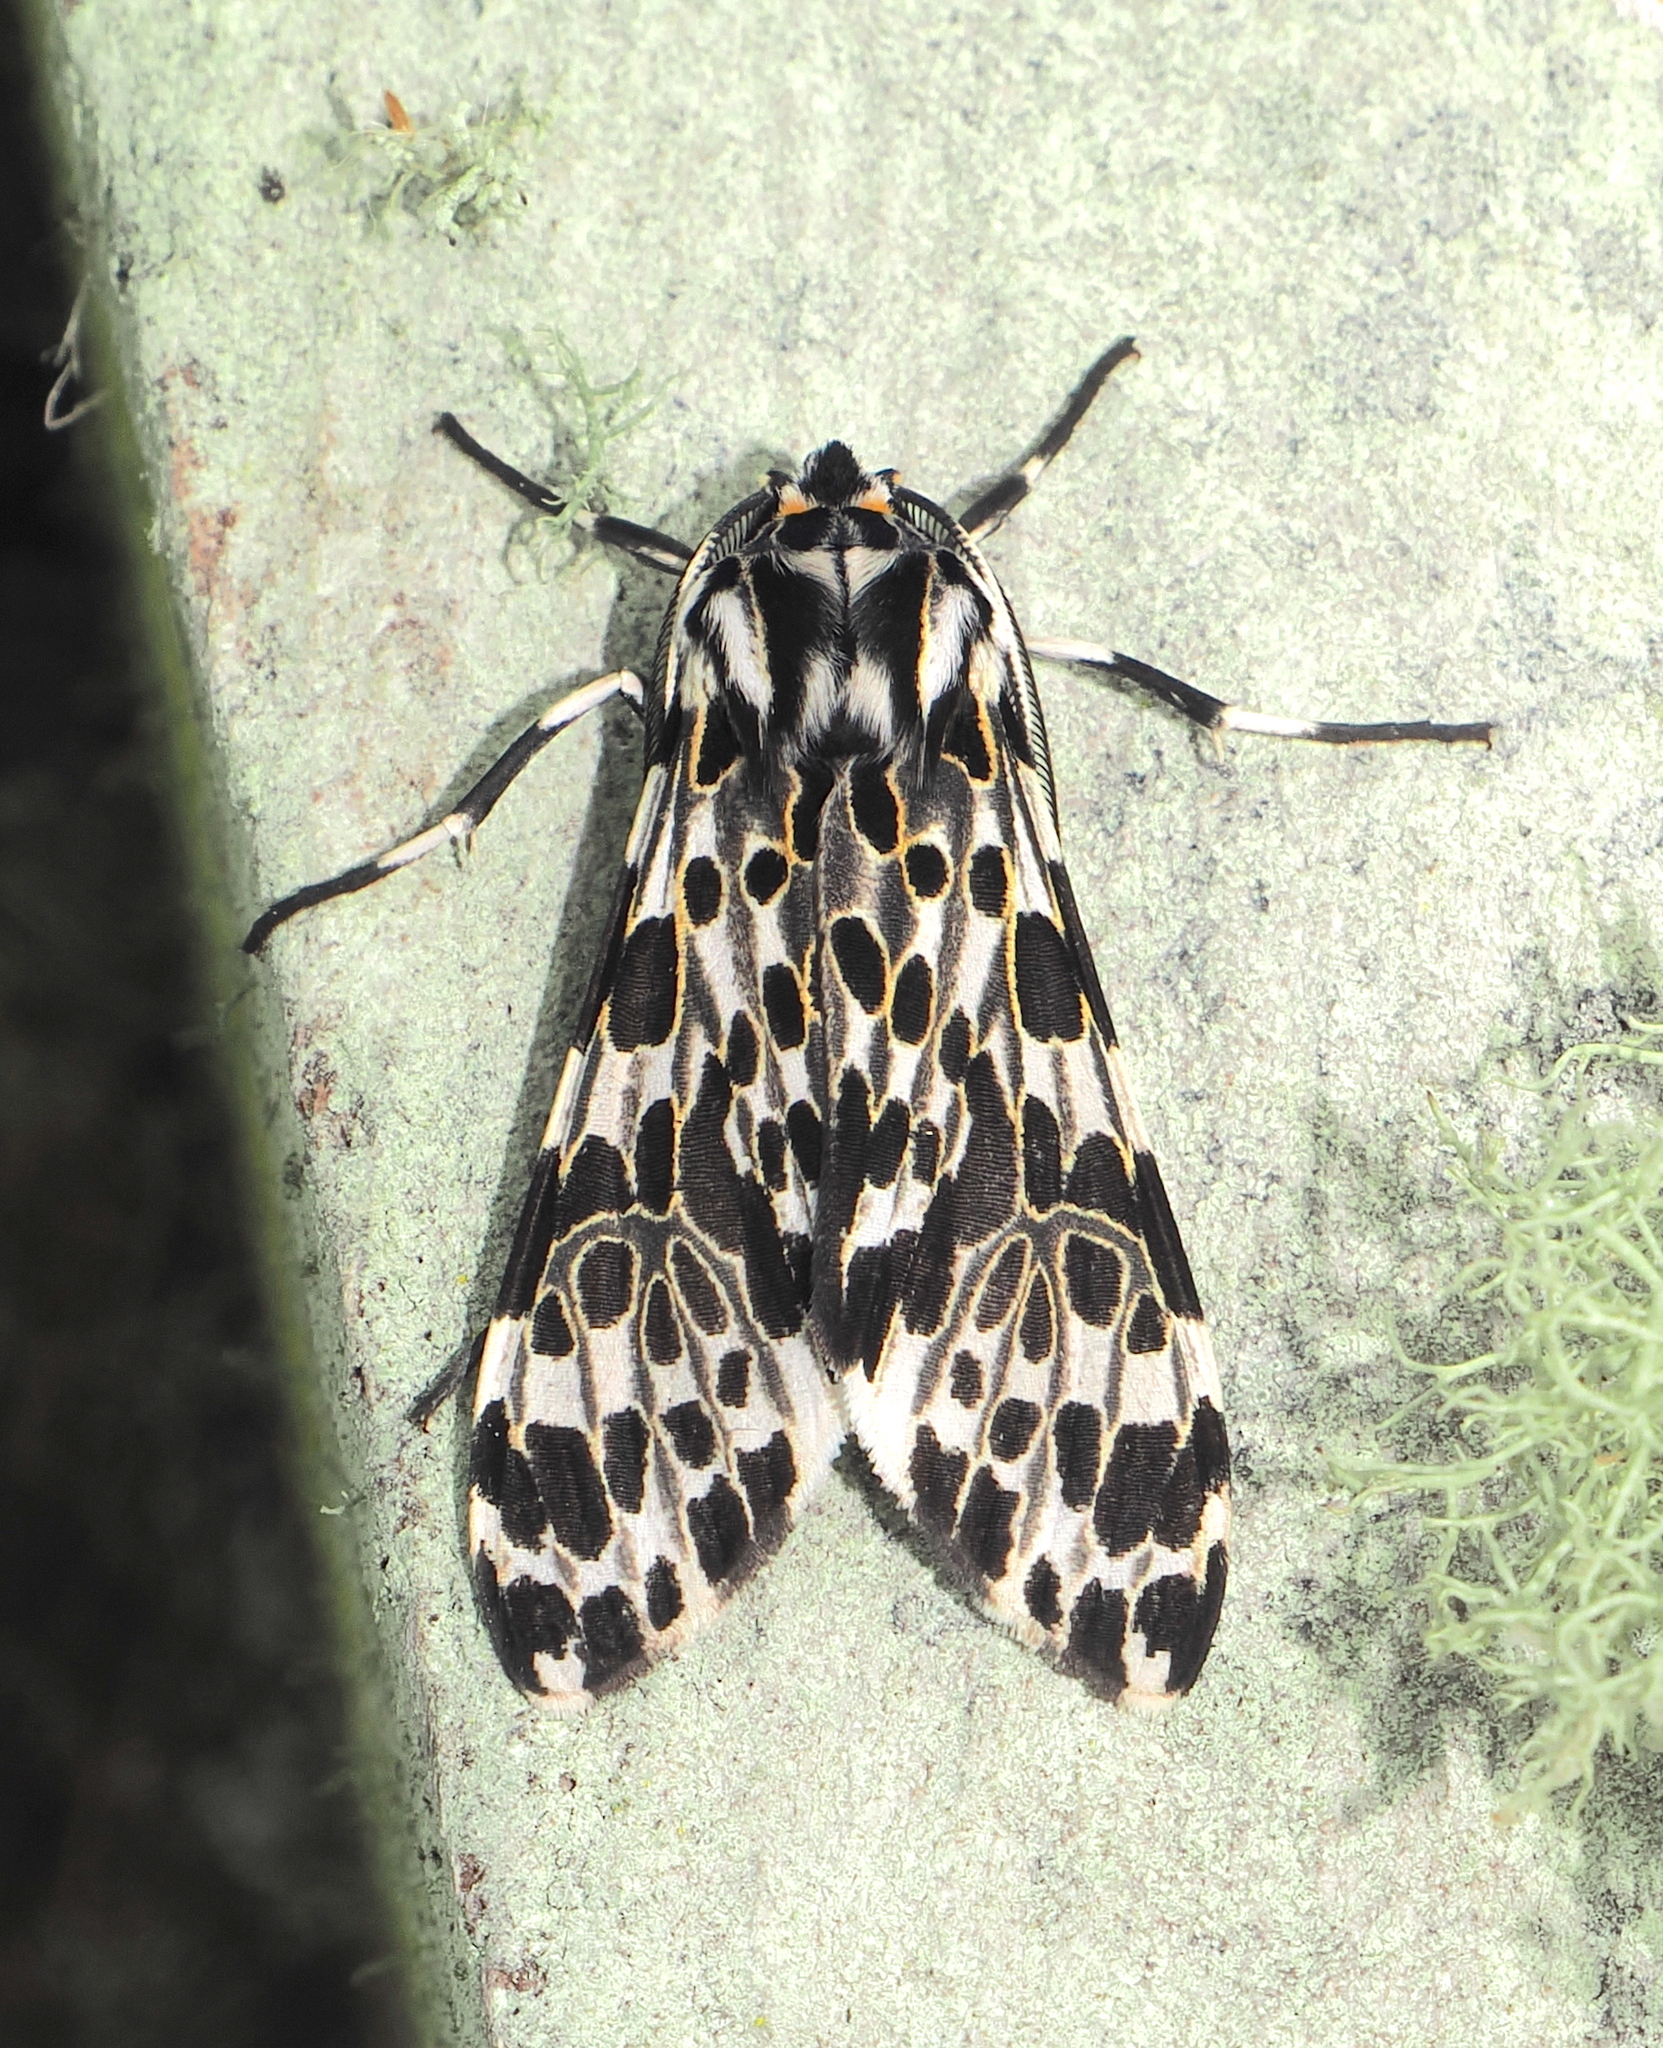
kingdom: Animalia
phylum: Arthropoda
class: Insecta
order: Lepidoptera
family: Erebidae
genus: Eucereon
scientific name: Eucereon confinis
